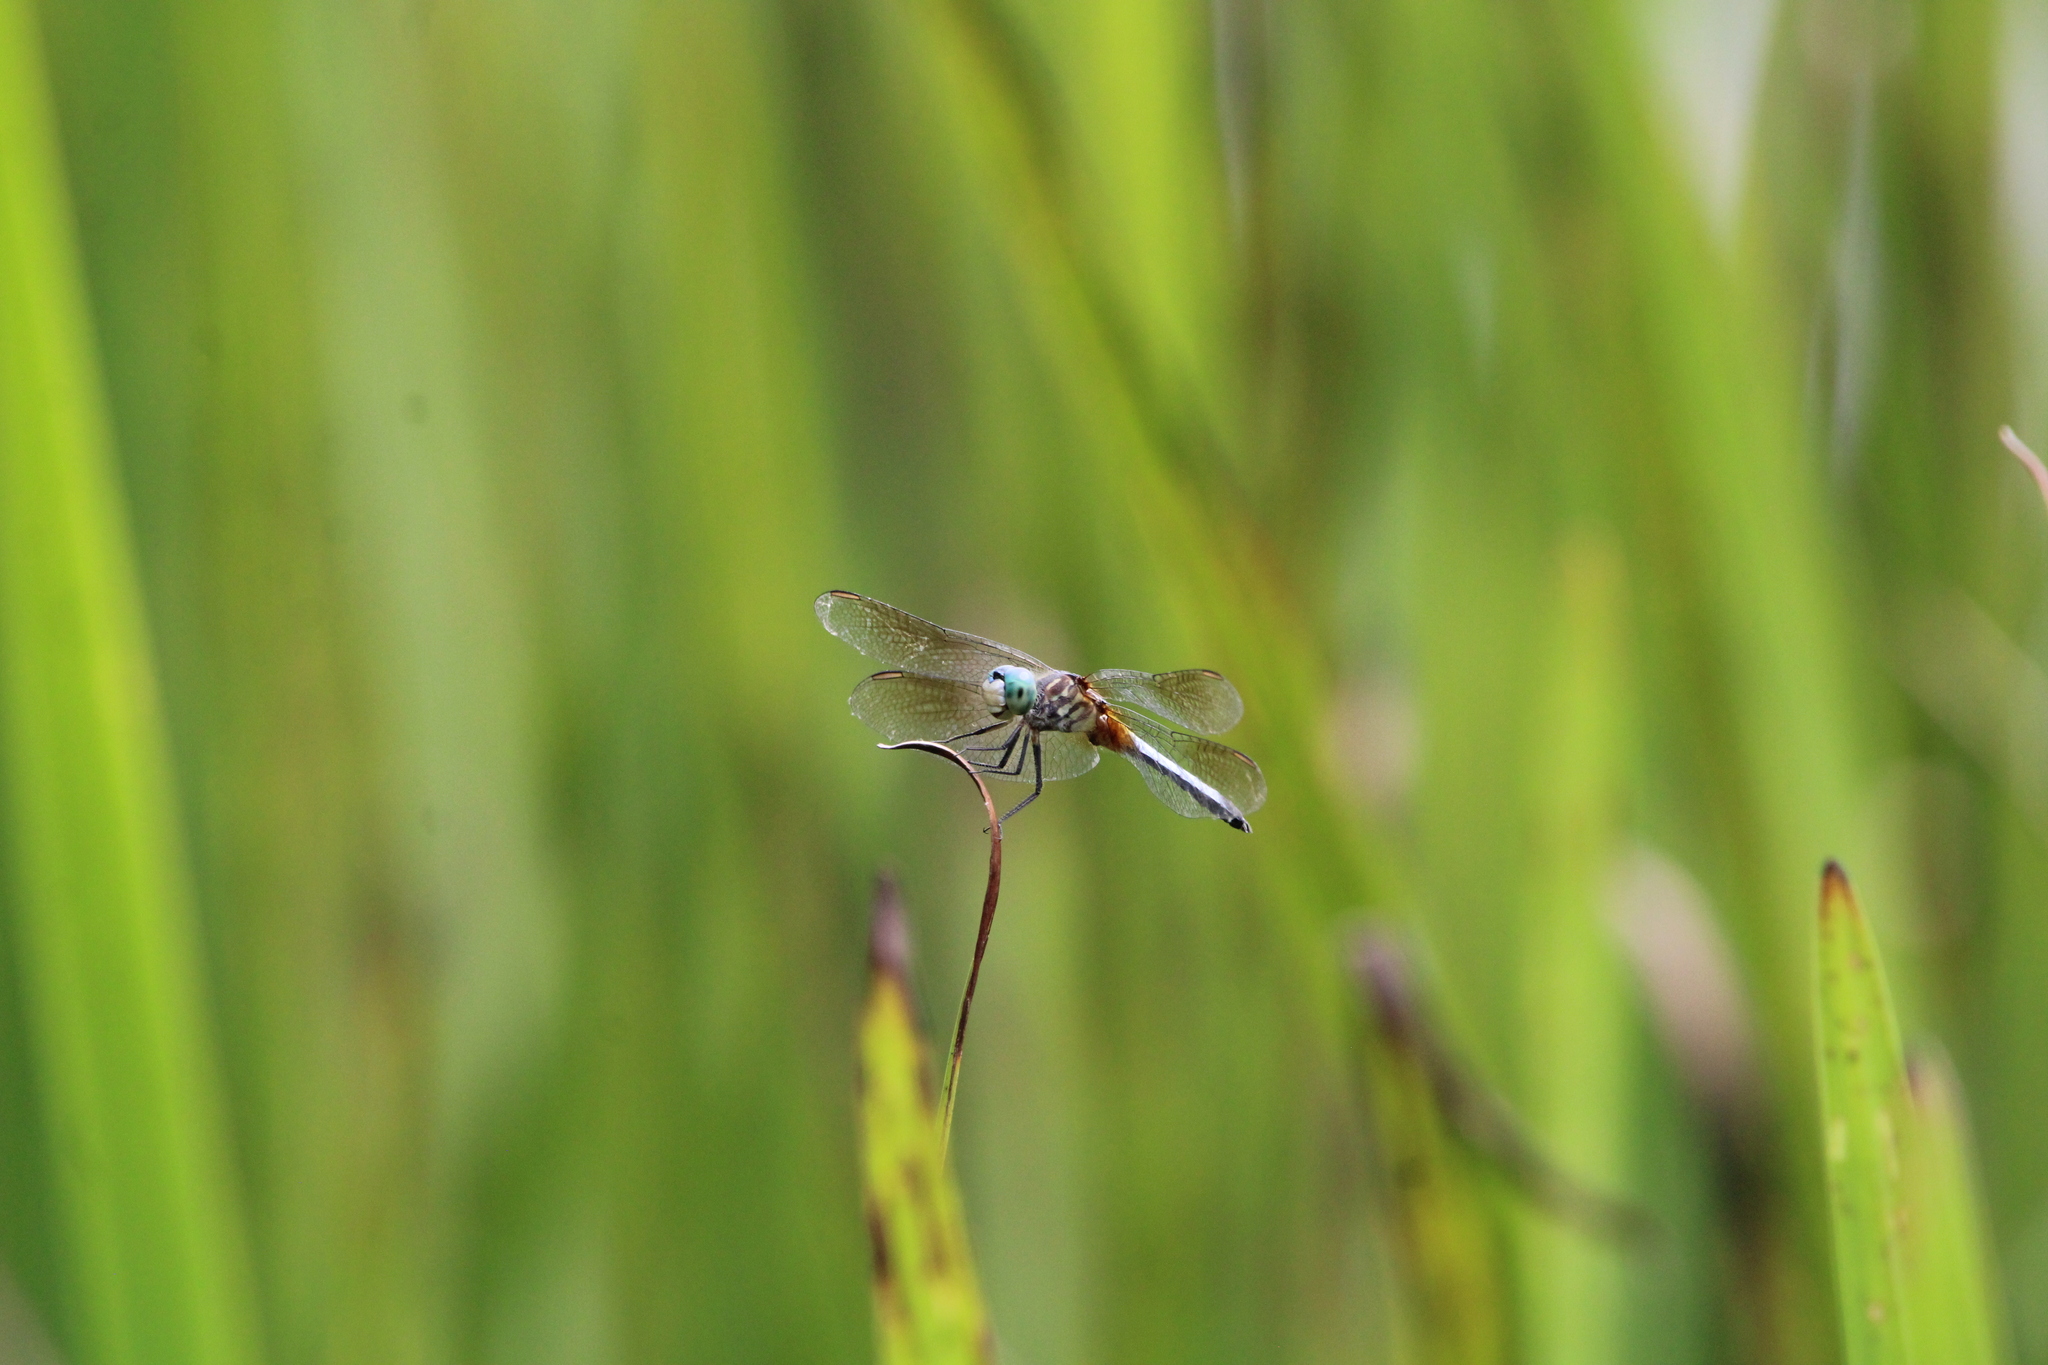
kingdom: Animalia
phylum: Arthropoda
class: Insecta
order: Odonata
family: Libellulidae
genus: Pachydiplax
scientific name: Pachydiplax longipennis
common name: Blue dasher
